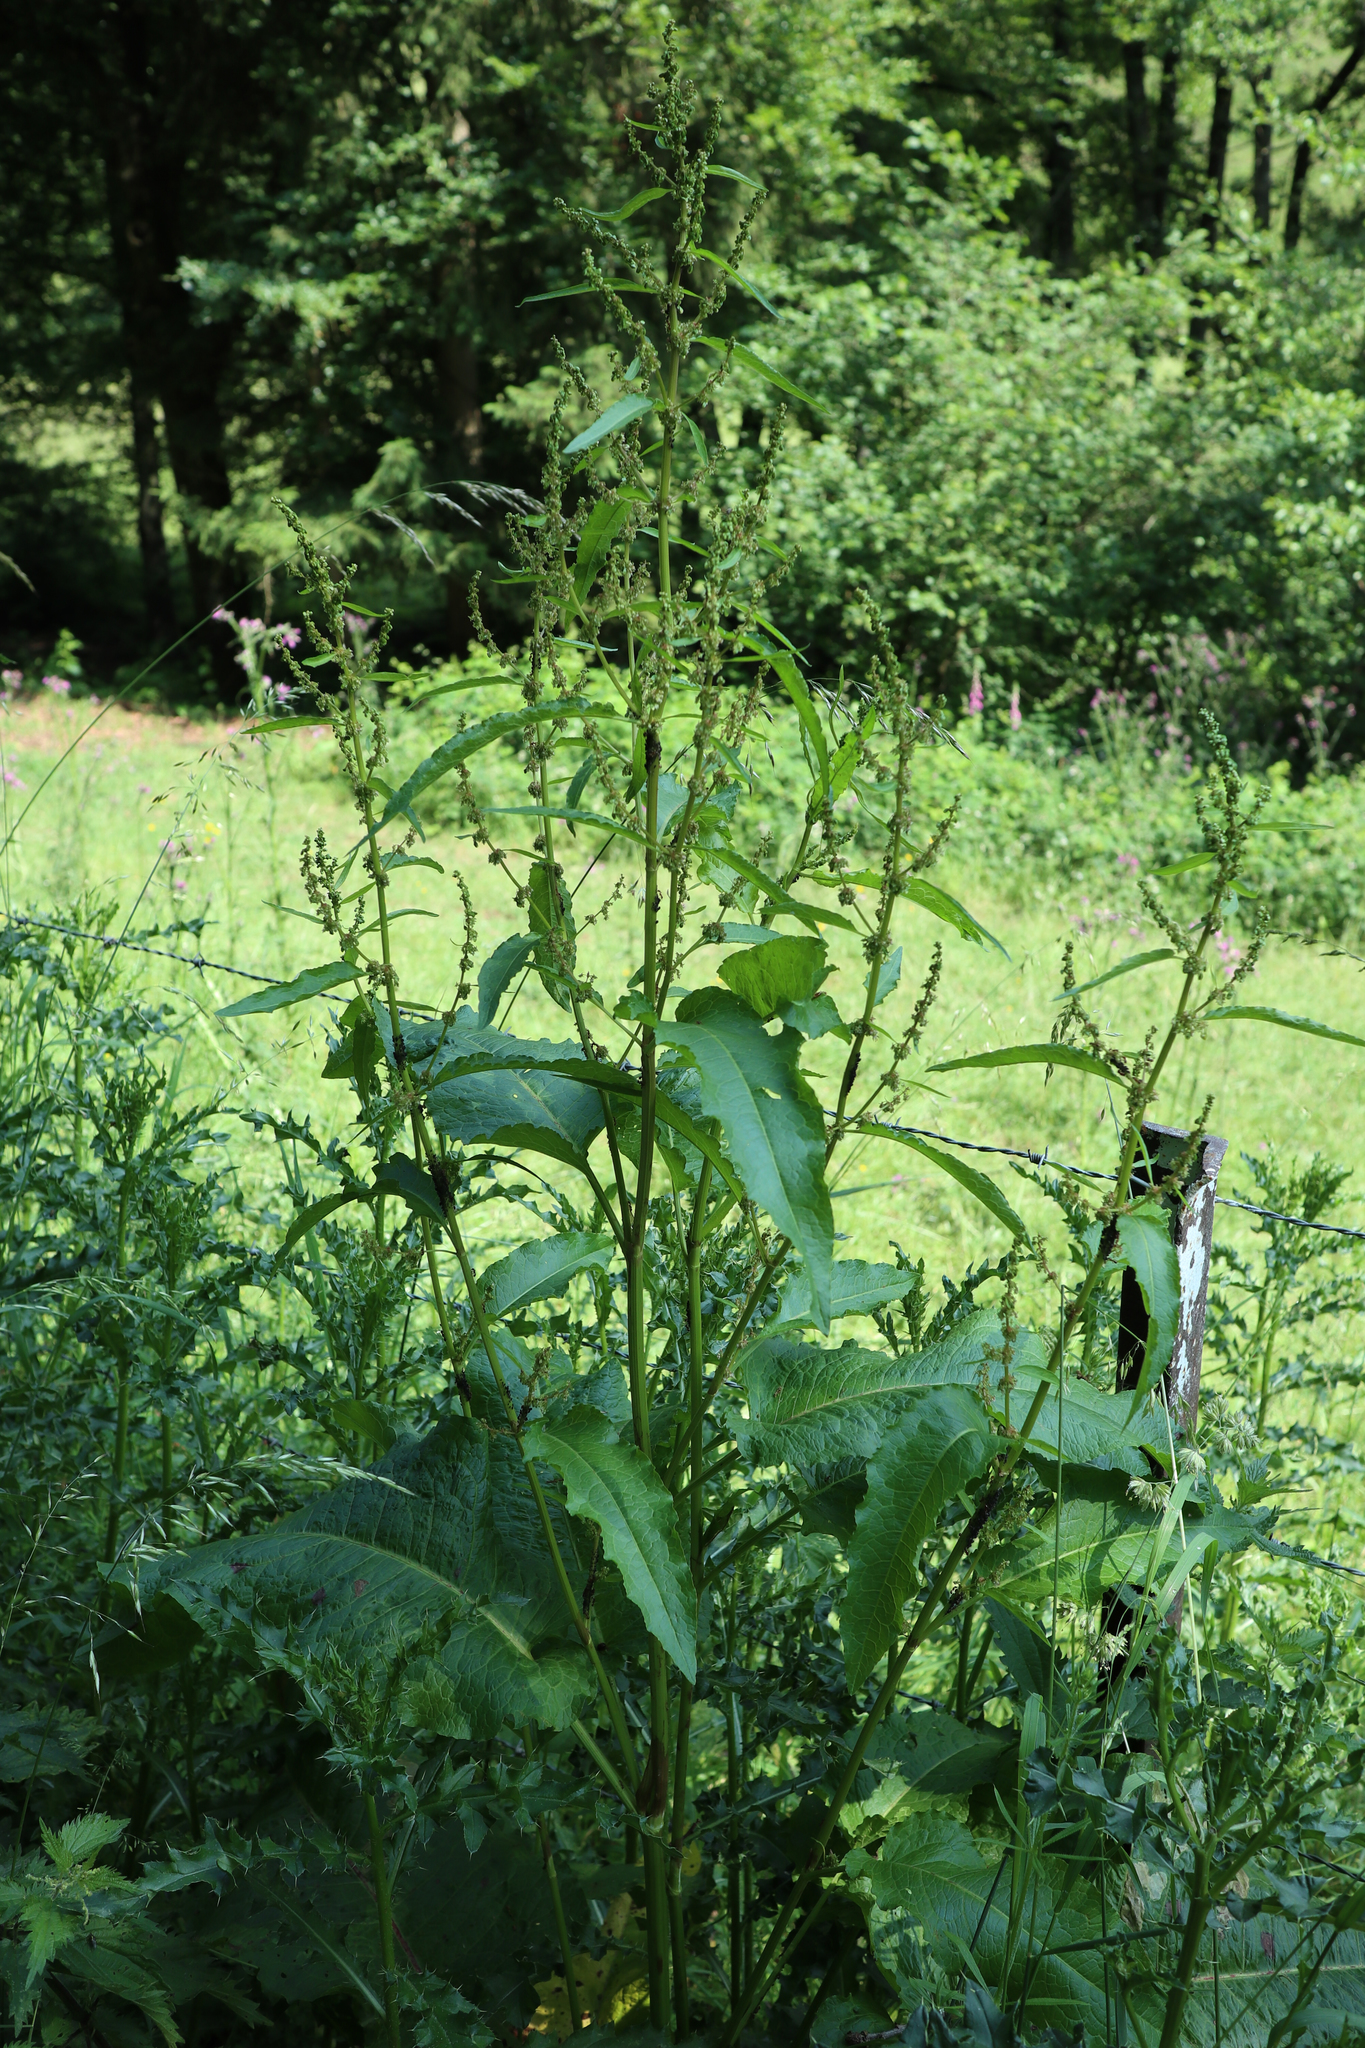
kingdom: Plantae
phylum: Tracheophyta
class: Magnoliopsida
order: Caryophyllales
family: Polygonaceae
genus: Rumex
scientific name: Rumex crispus
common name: Curled dock
